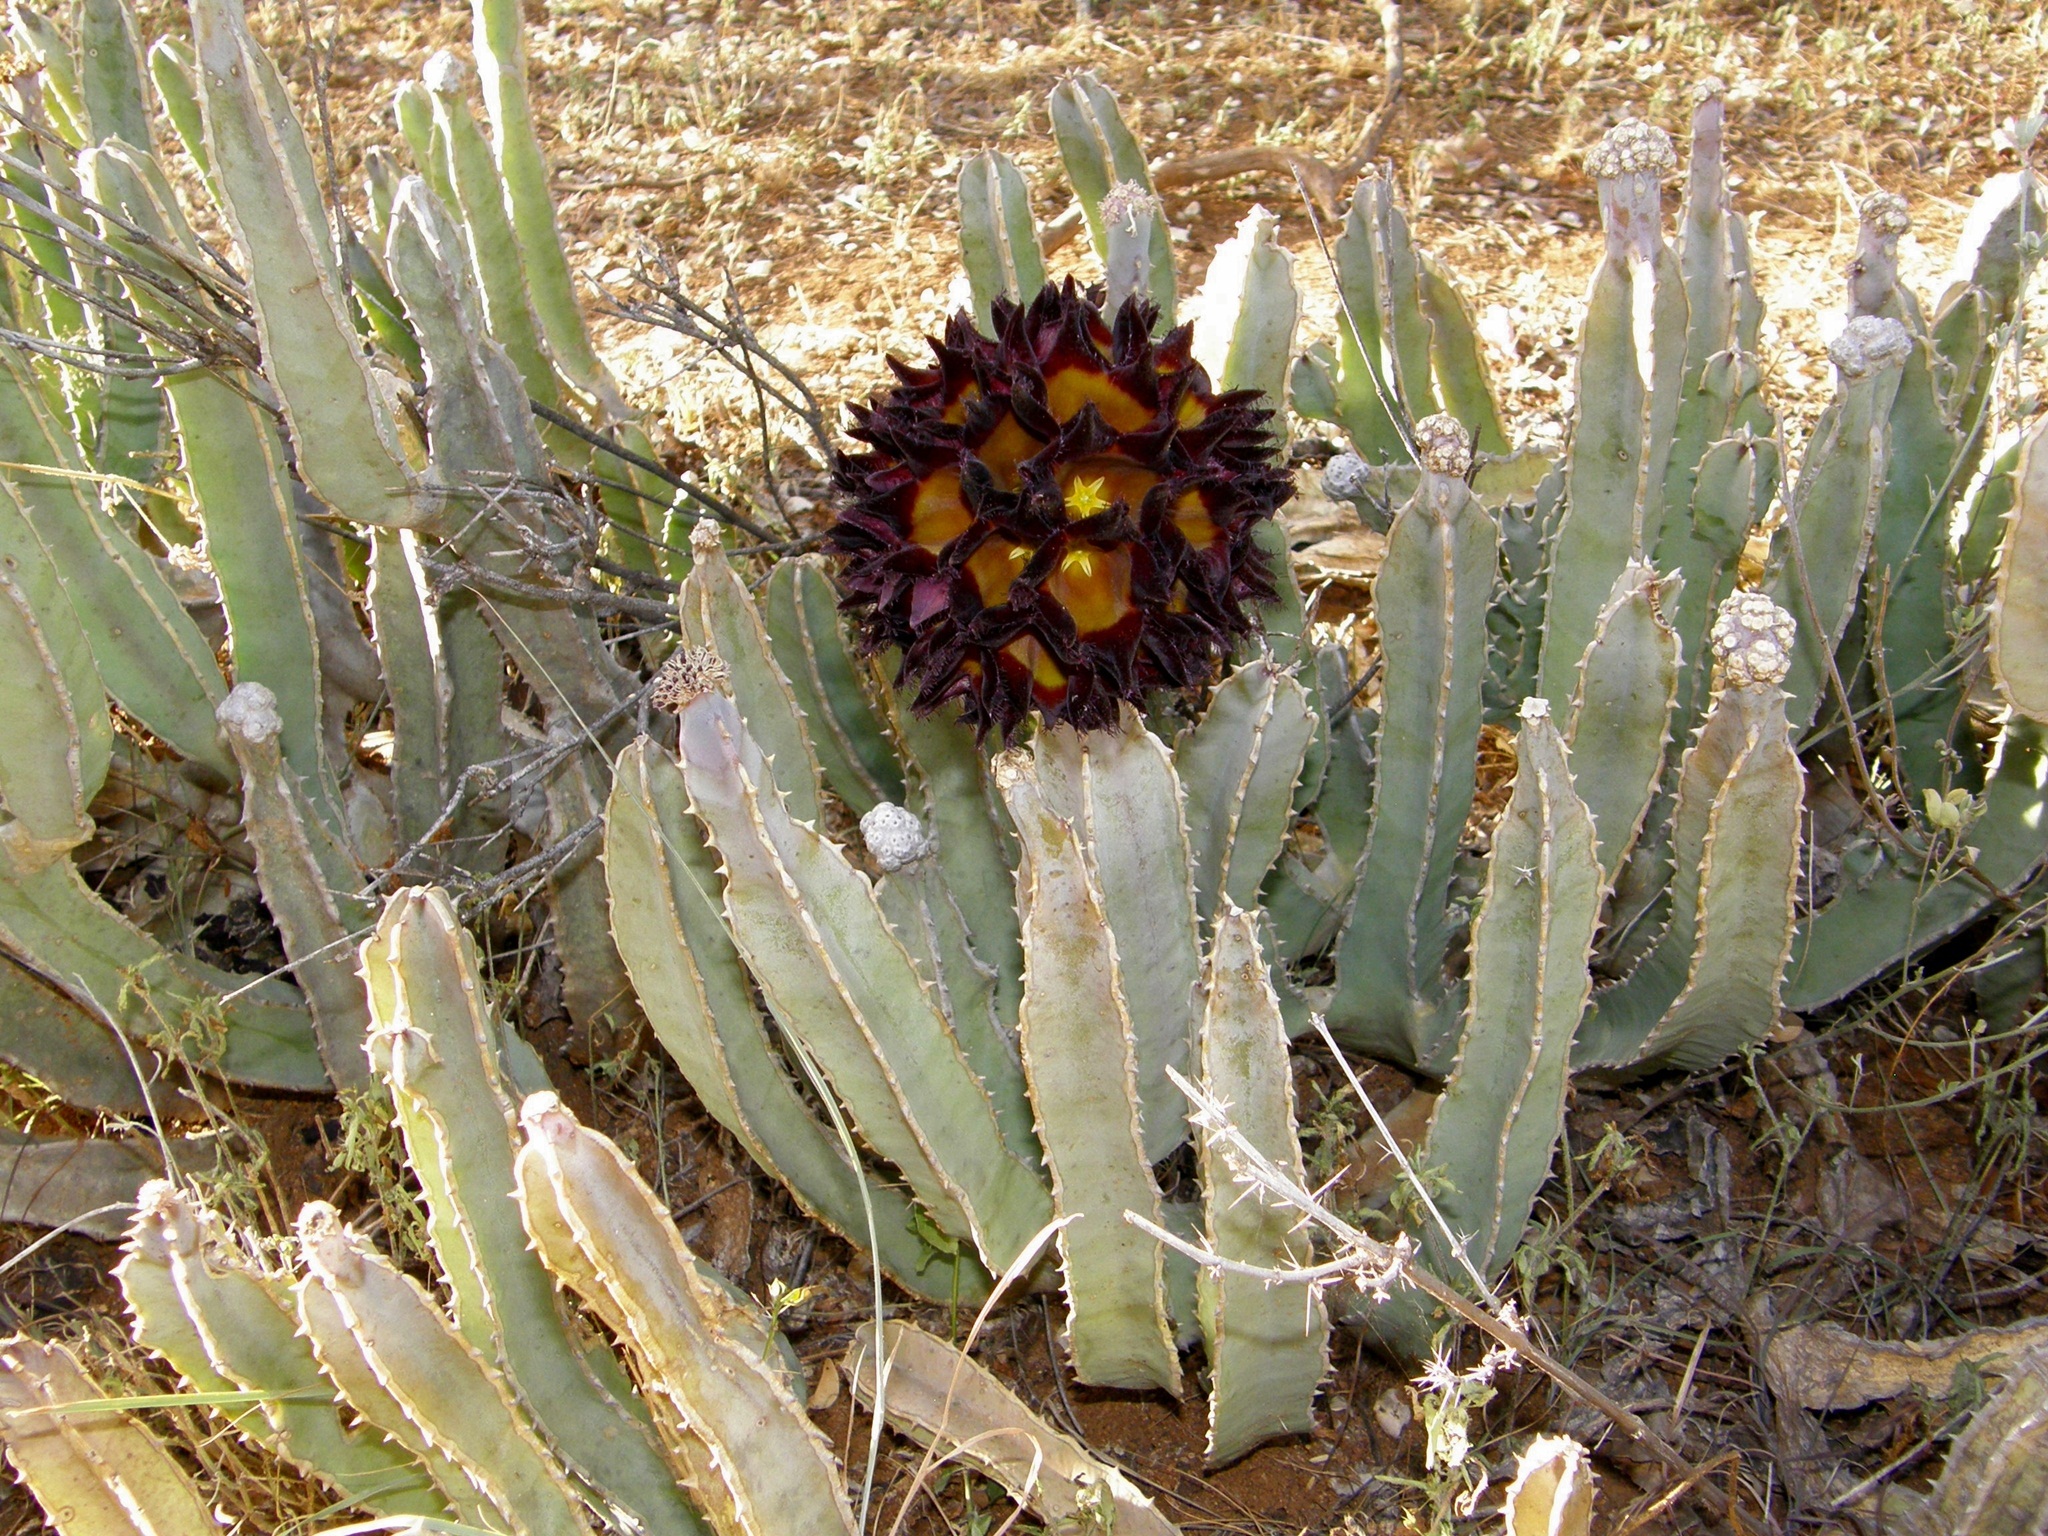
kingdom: Plantae
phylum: Tracheophyta
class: Magnoliopsida
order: Gentianales
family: Apocynaceae
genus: Ceropegia
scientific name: Ceropegia codonoides
